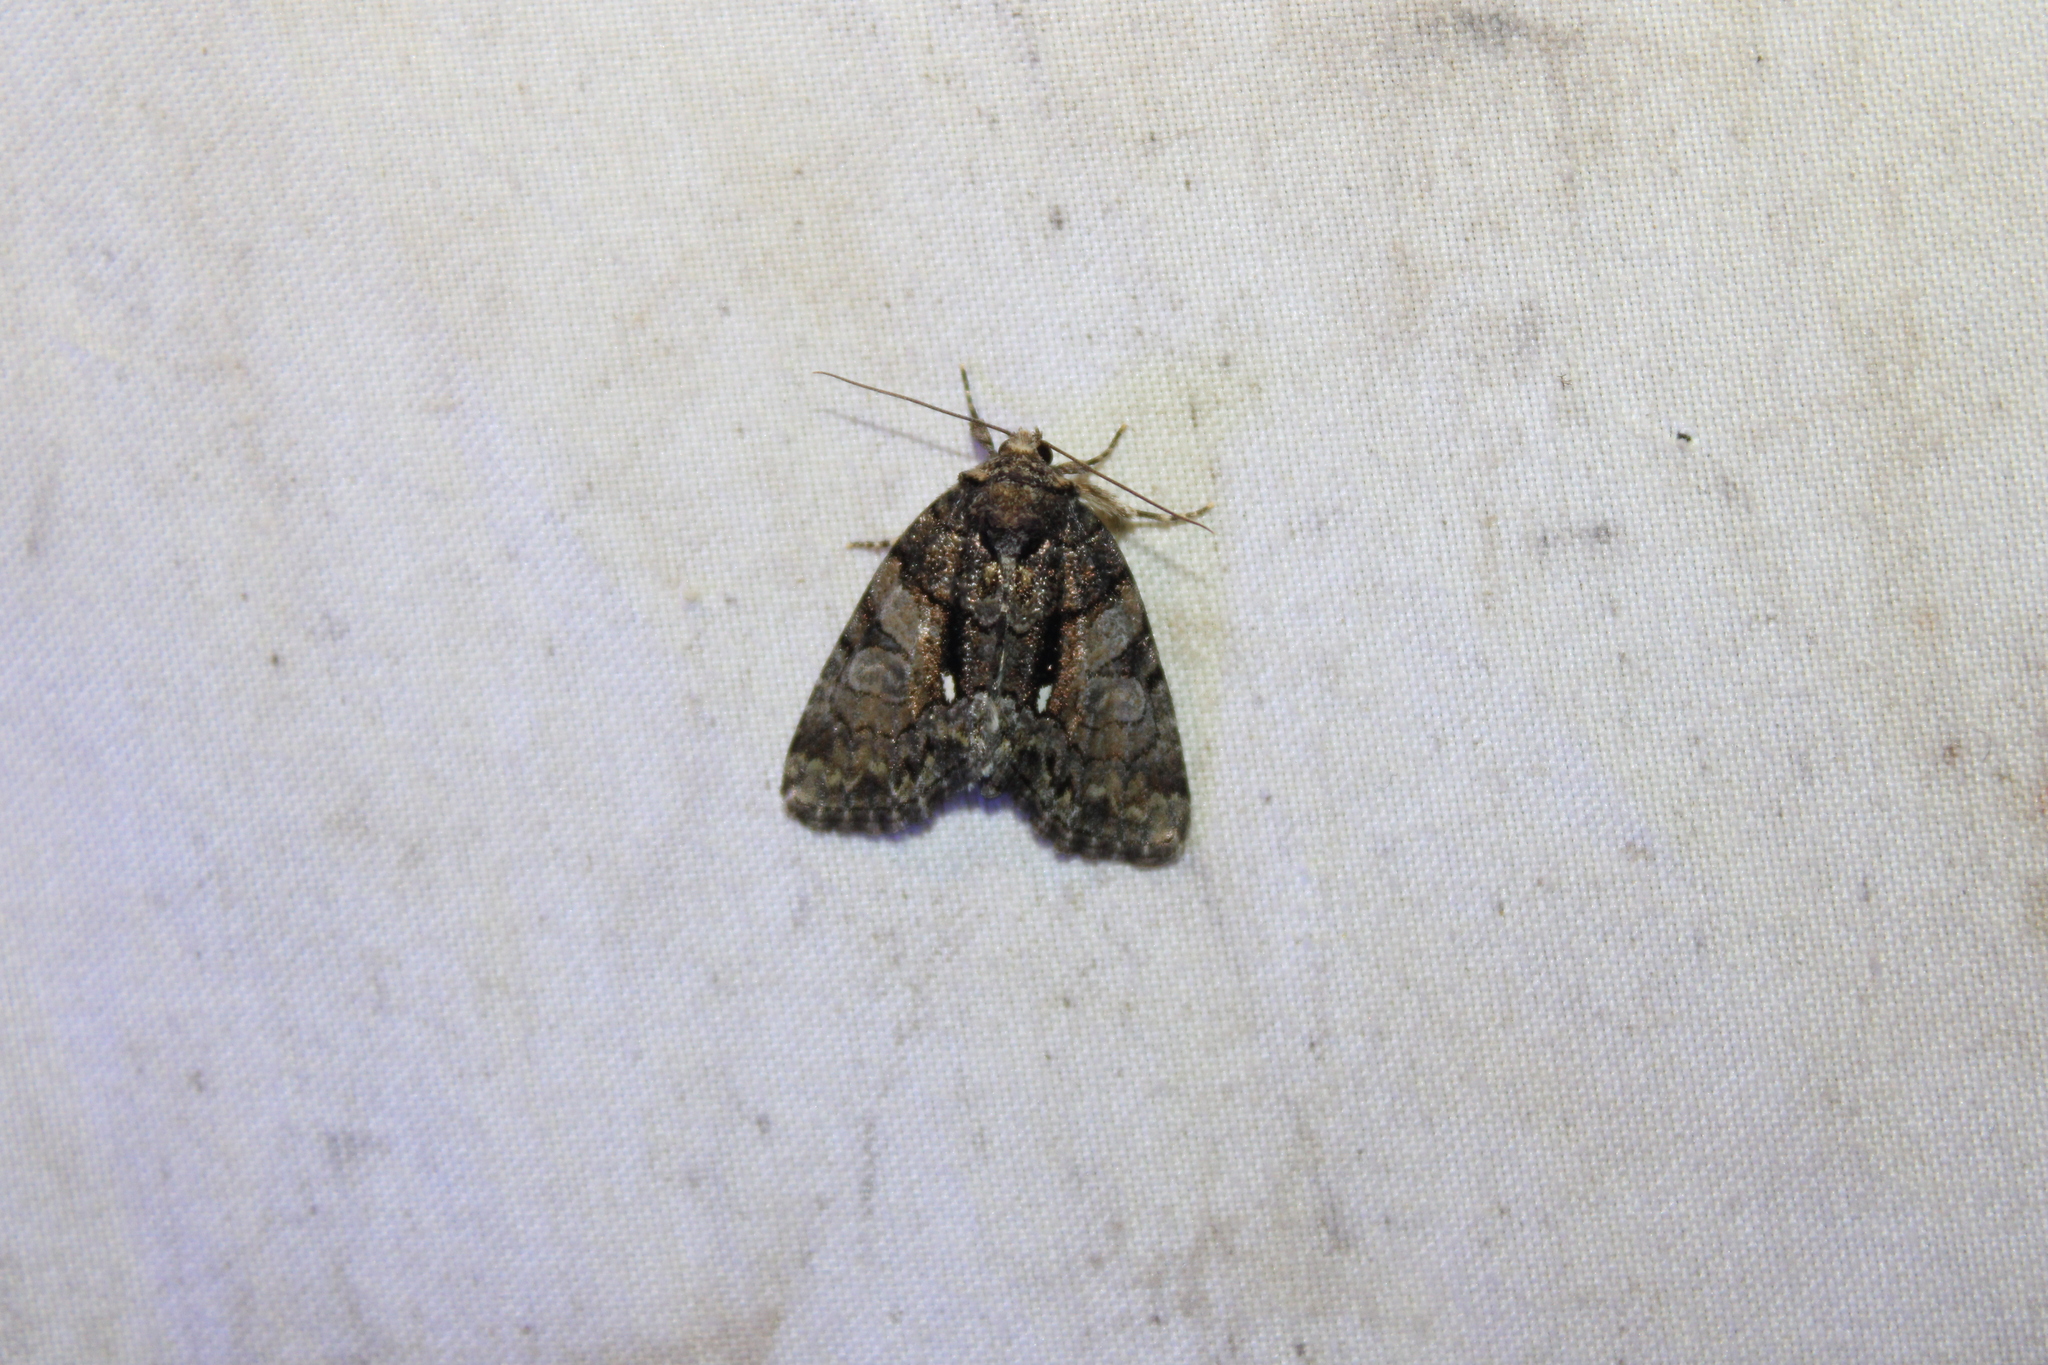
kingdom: Animalia
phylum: Arthropoda
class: Insecta
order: Lepidoptera
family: Noctuidae
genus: Chytonix
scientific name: Chytonix palliatricula
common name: Cloaked marvel
